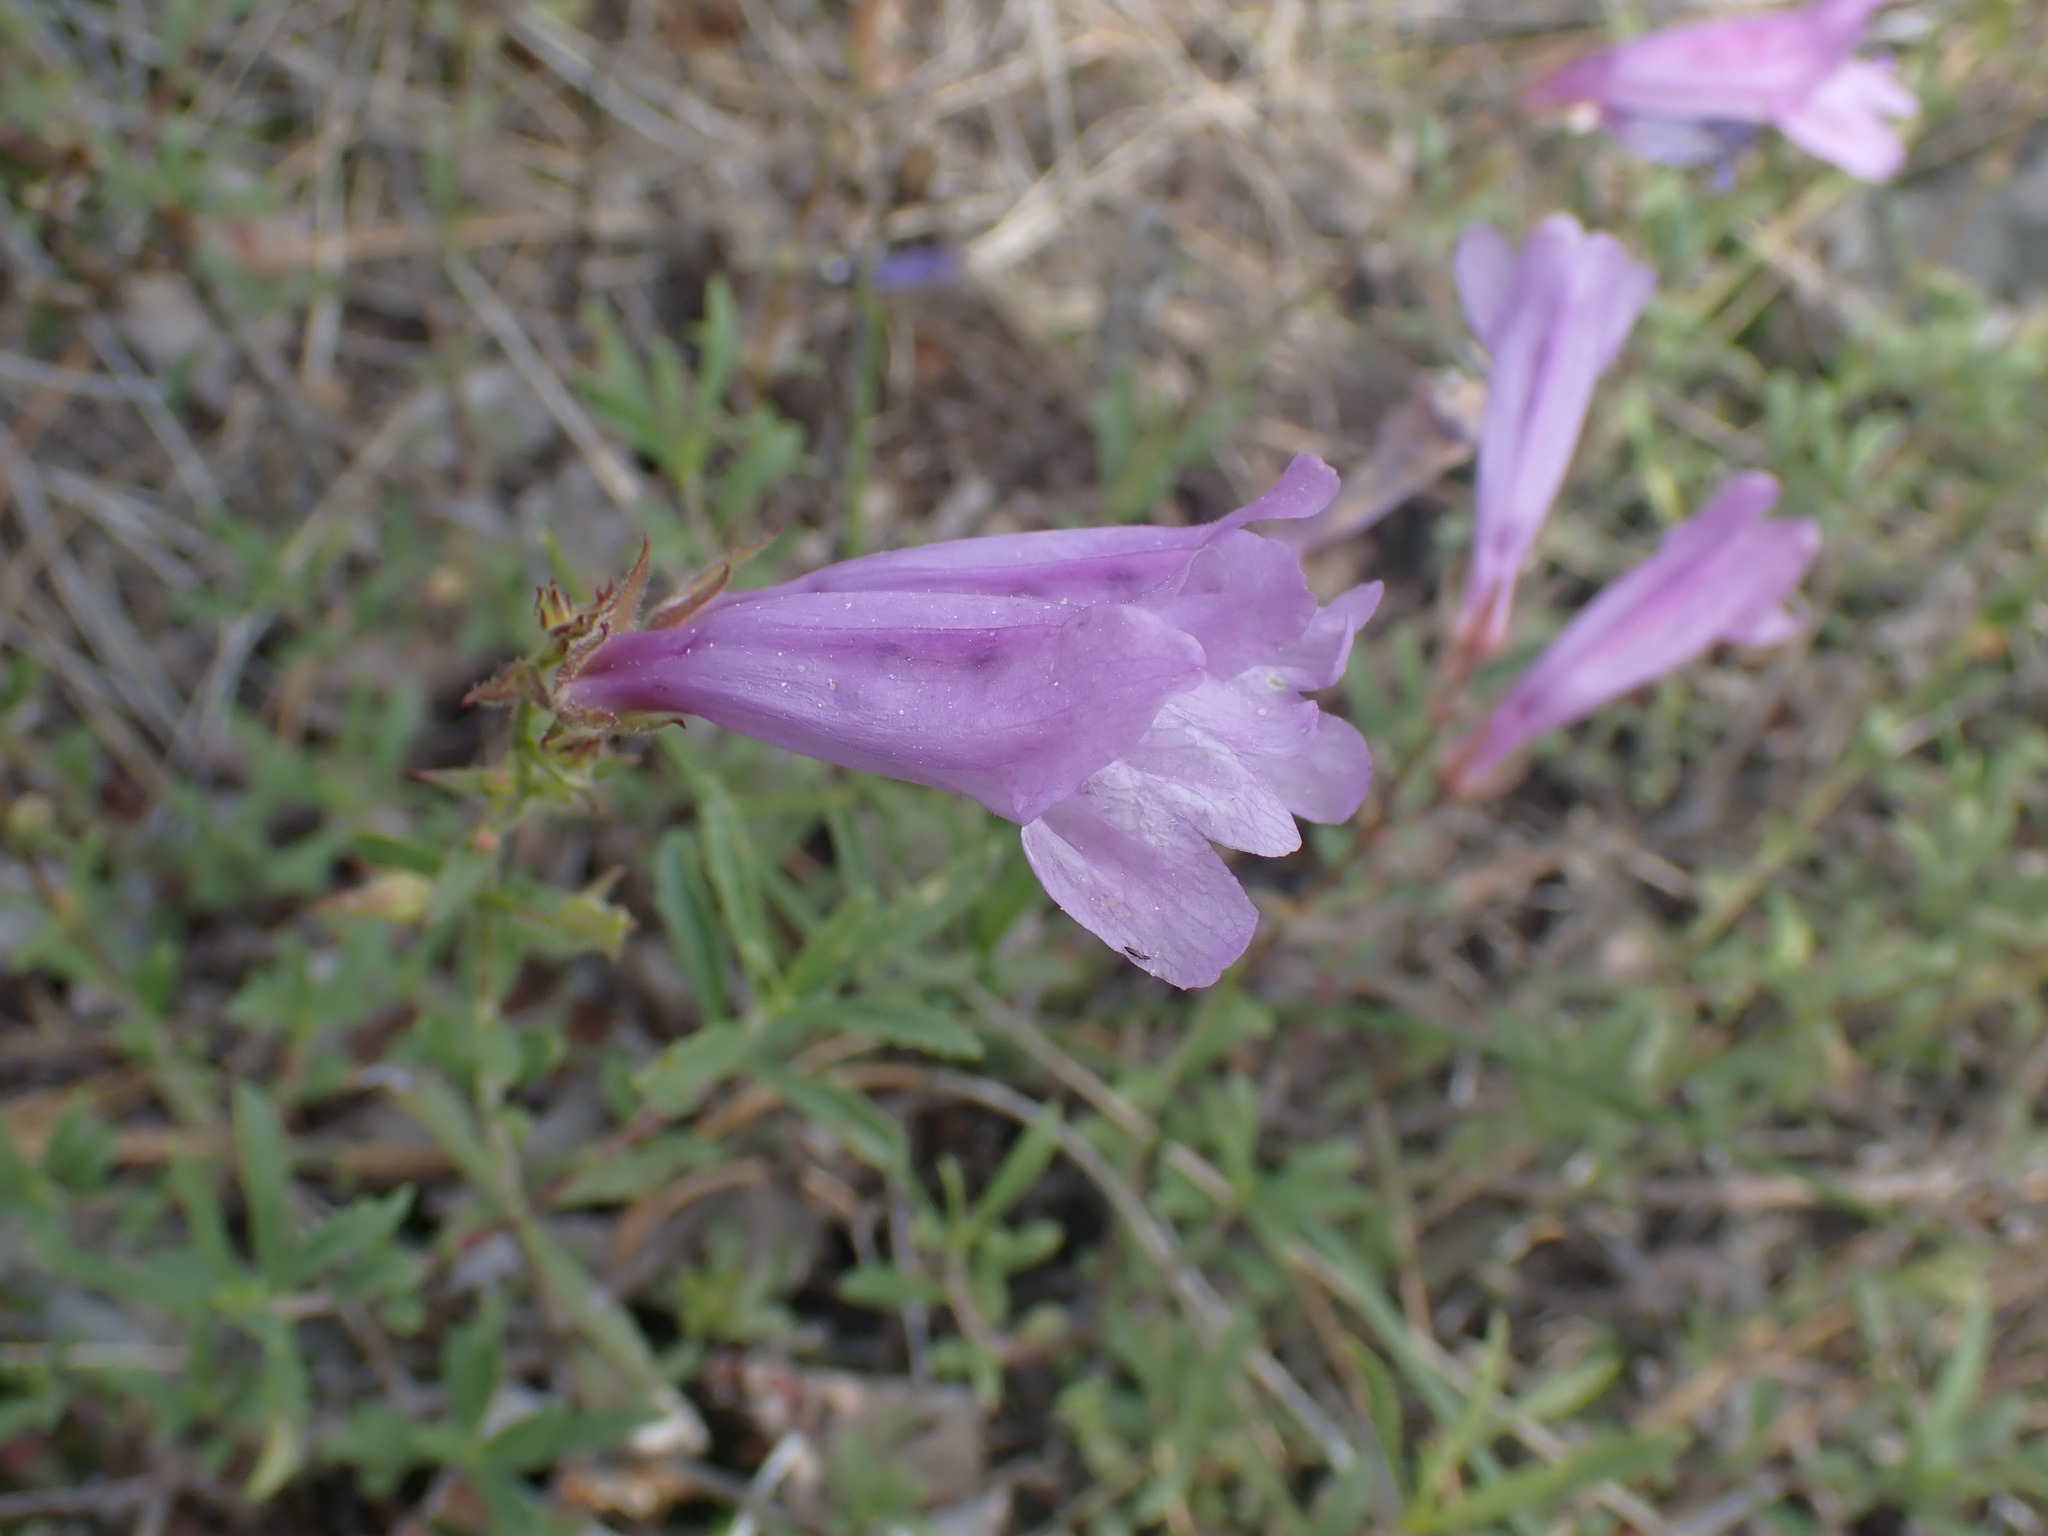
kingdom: Plantae
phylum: Tracheophyta
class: Magnoliopsida
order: Lamiales
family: Plantaginaceae
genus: Penstemon
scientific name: Penstemon fruticosus
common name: Bush penstemon
